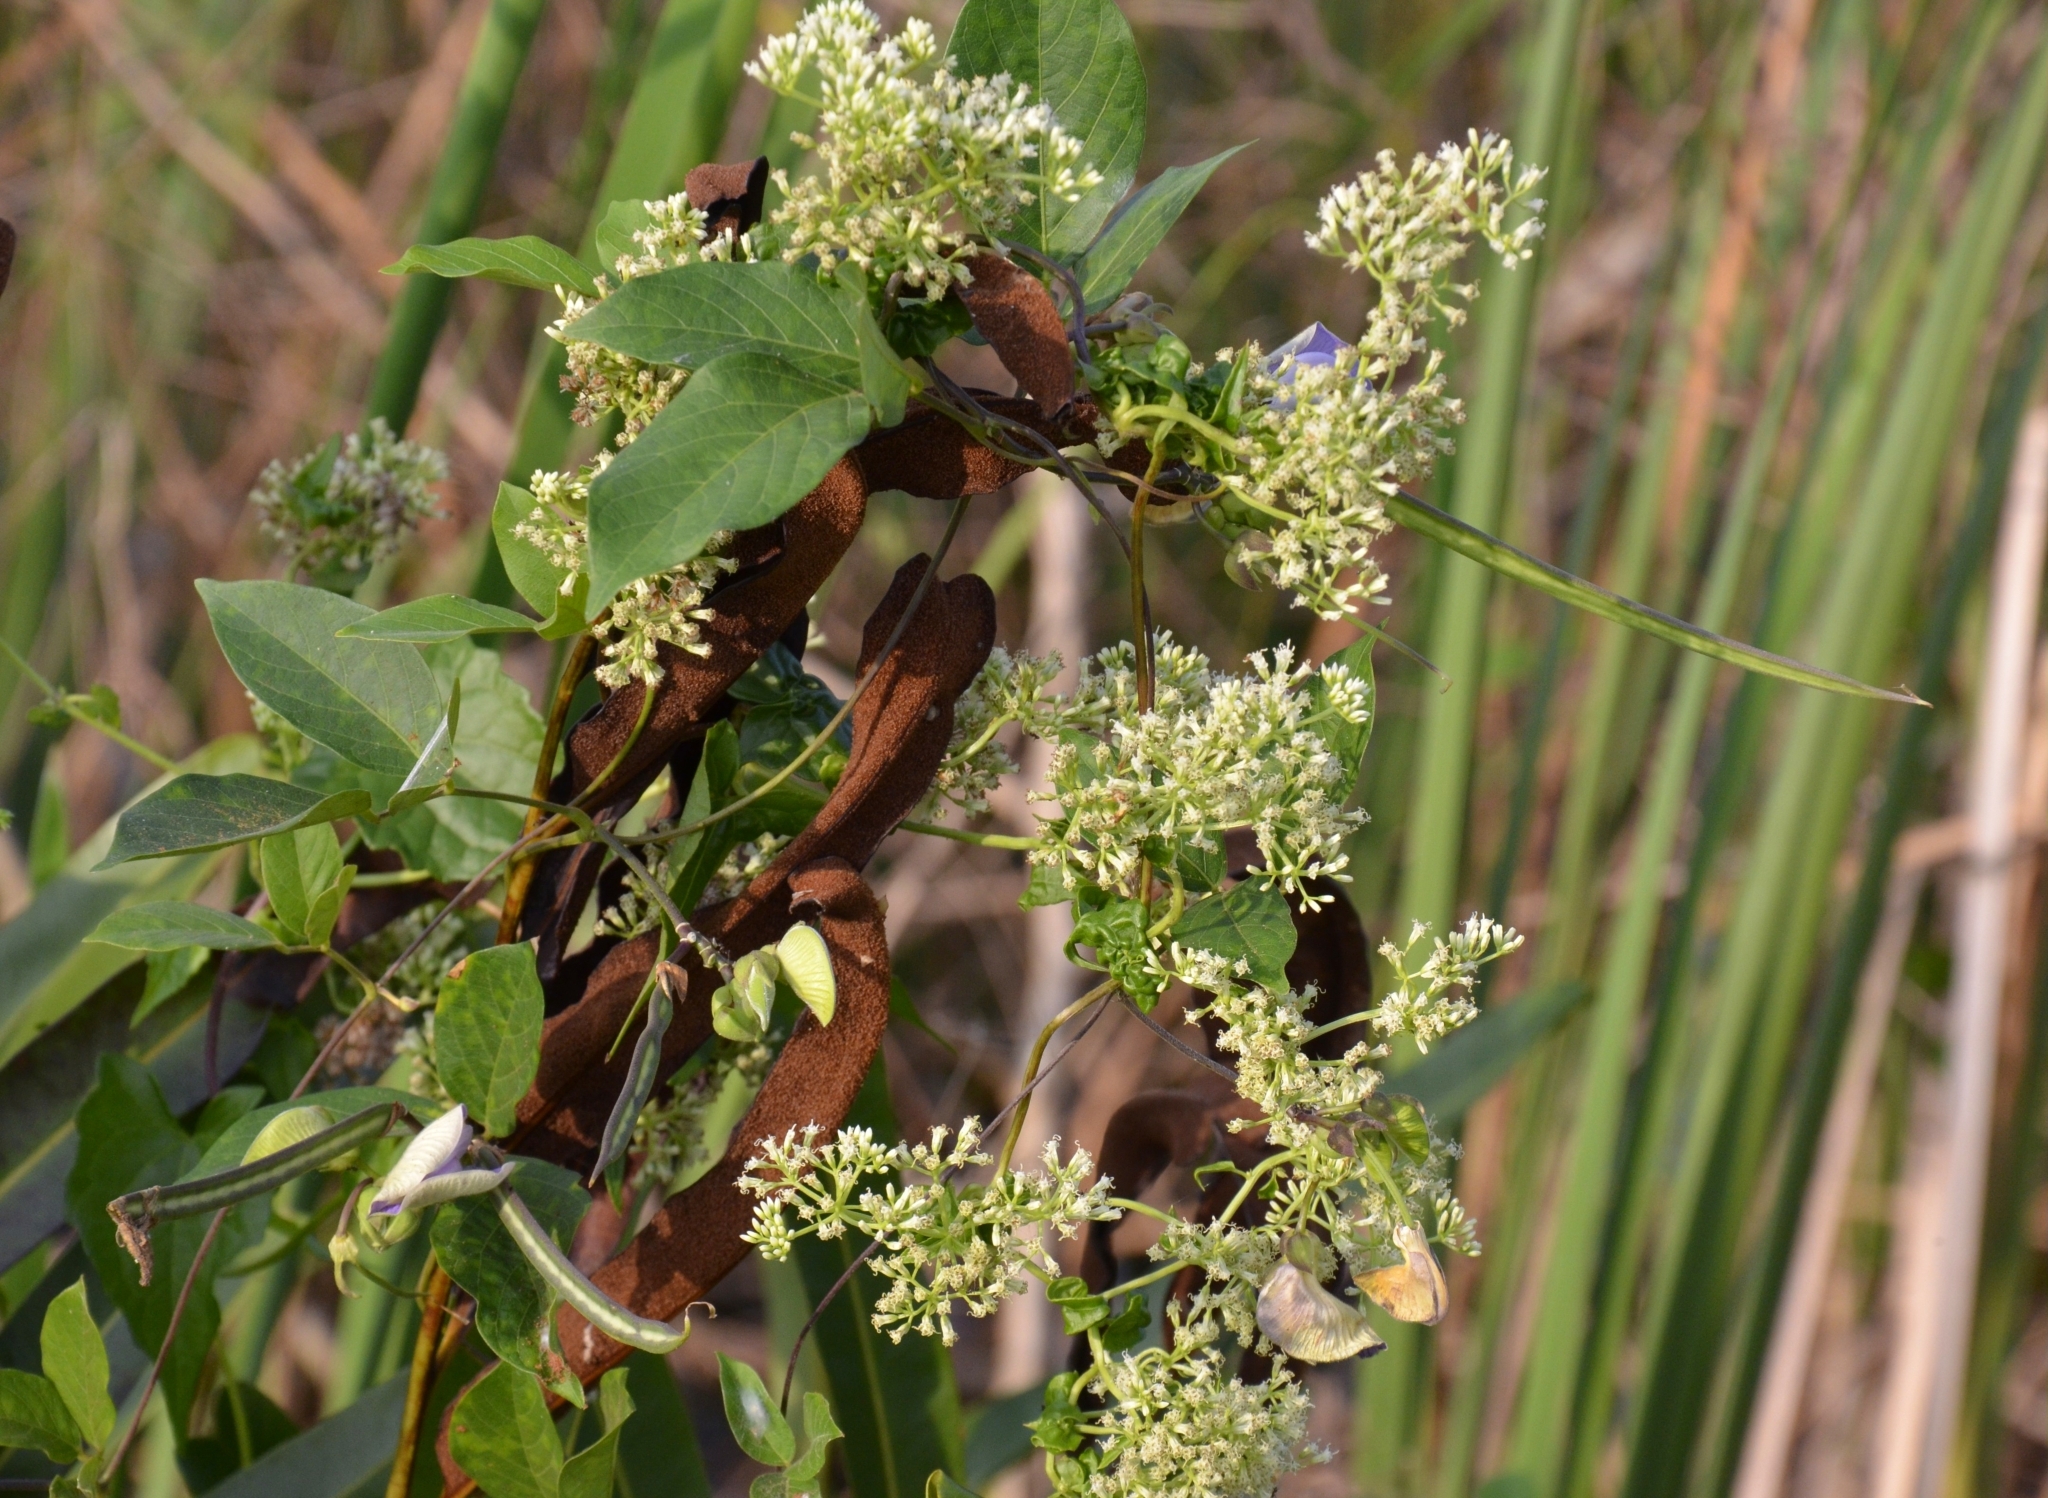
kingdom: Plantae
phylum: Tracheophyta
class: Magnoliopsida
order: Asterales
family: Asteraceae
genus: Mikania
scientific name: Mikania micrantha
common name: Mile-a-minute
